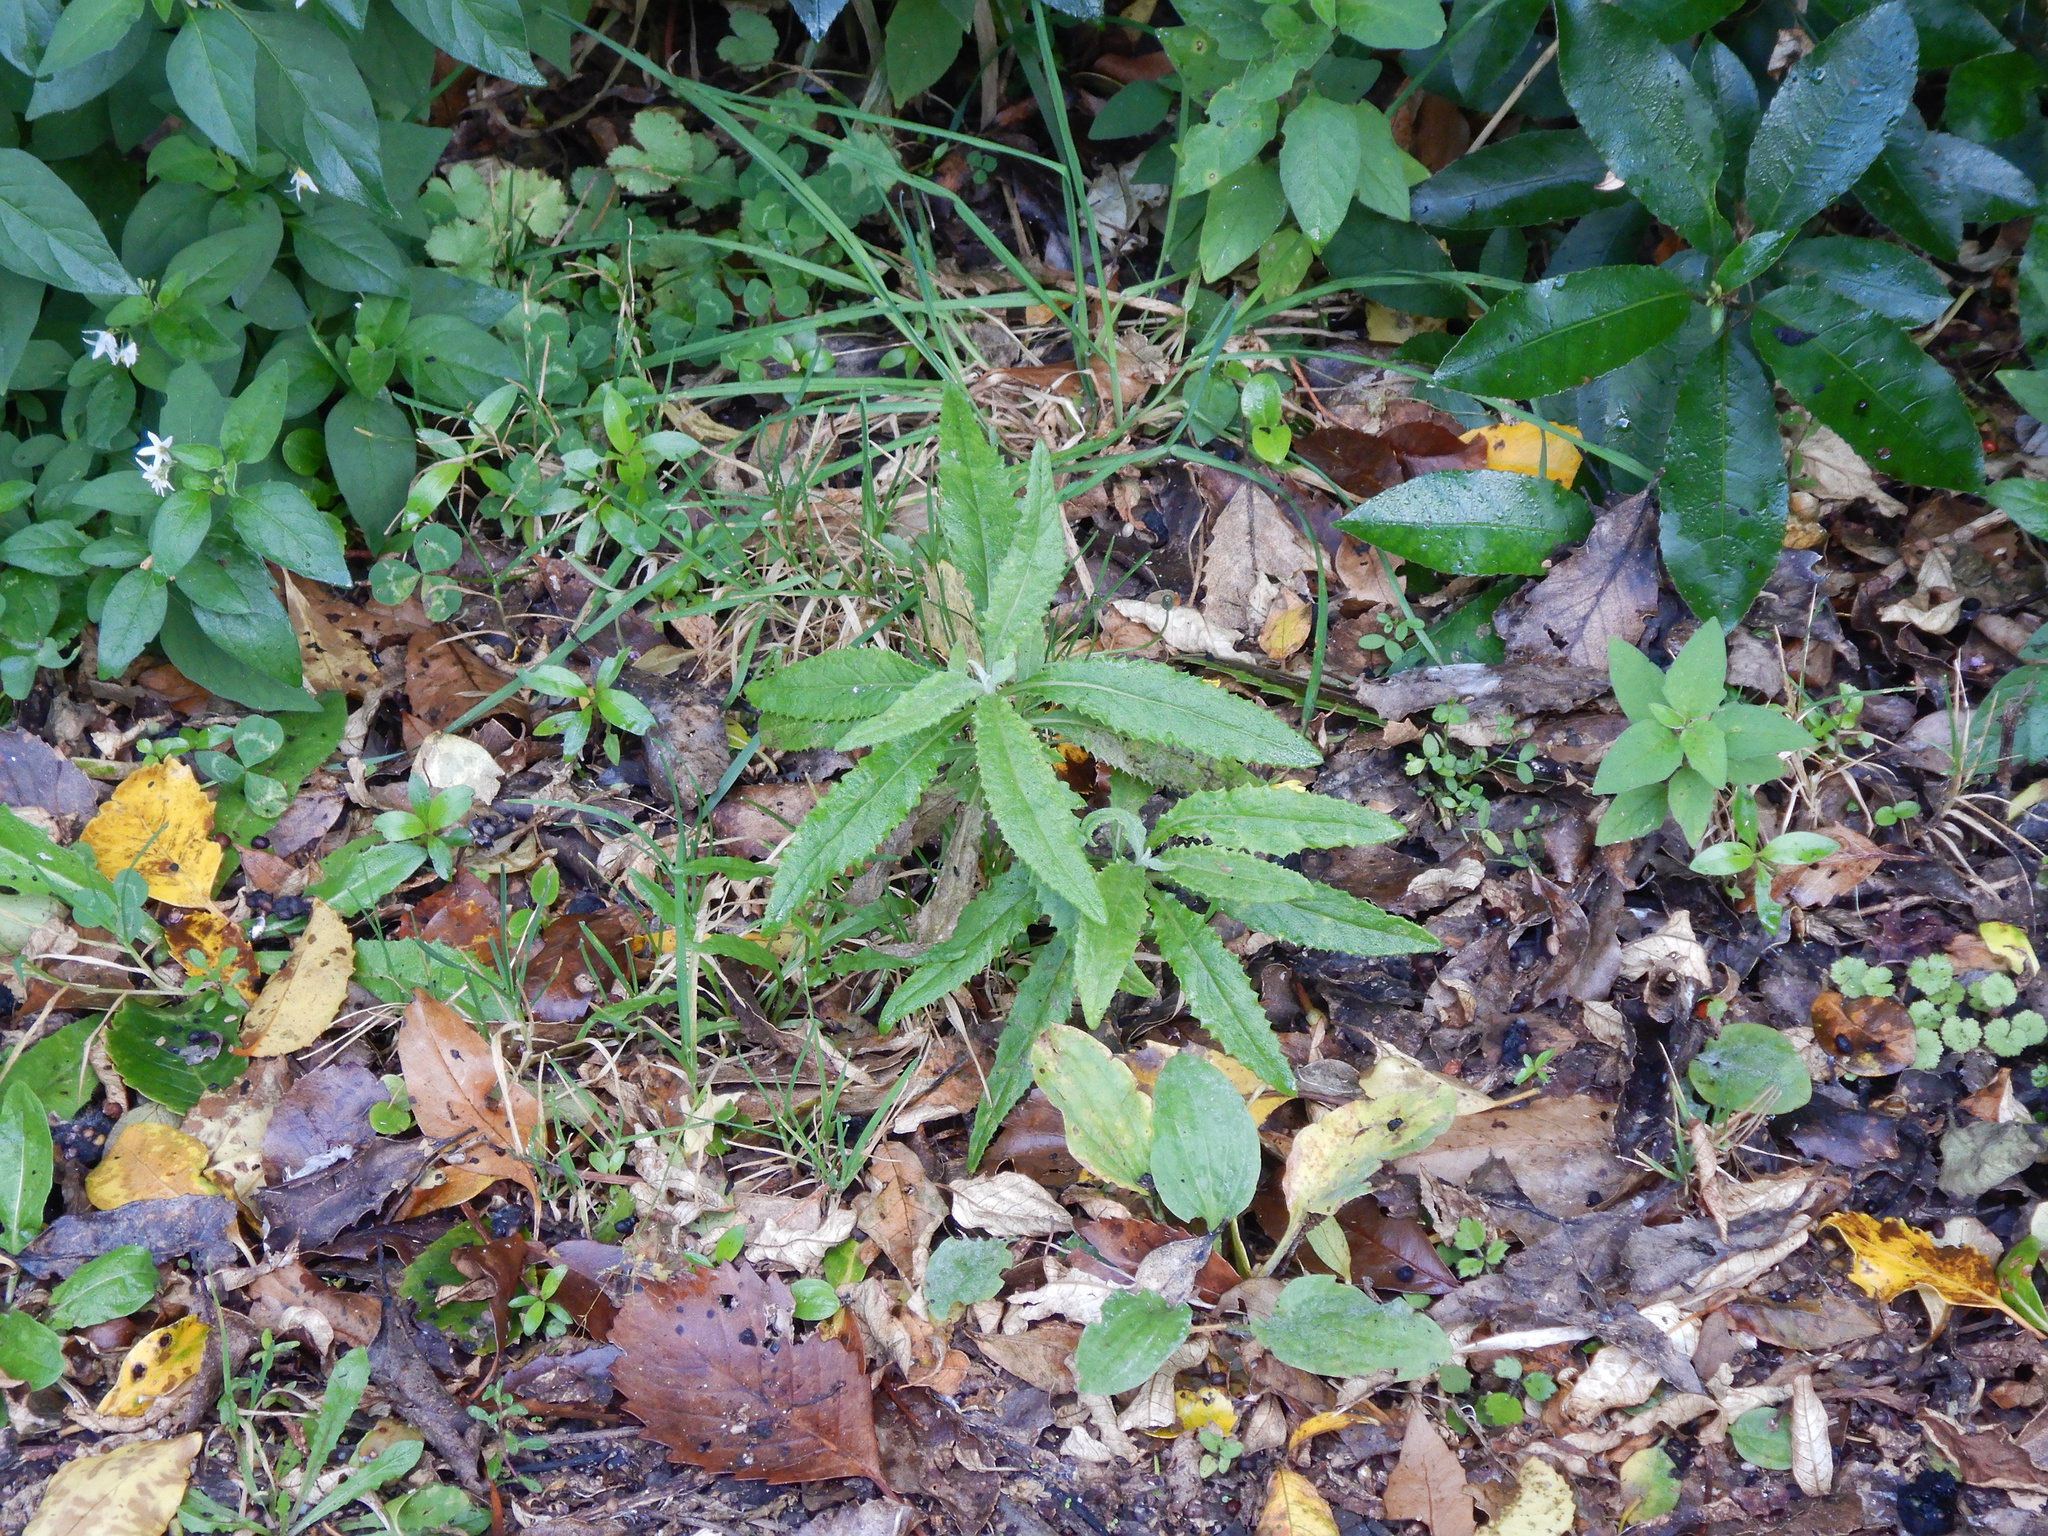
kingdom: Plantae
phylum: Tracheophyta
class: Magnoliopsida
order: Asterales
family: Asteraceae
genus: Senecio
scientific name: Senecio minimus
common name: Toothed fireweed
